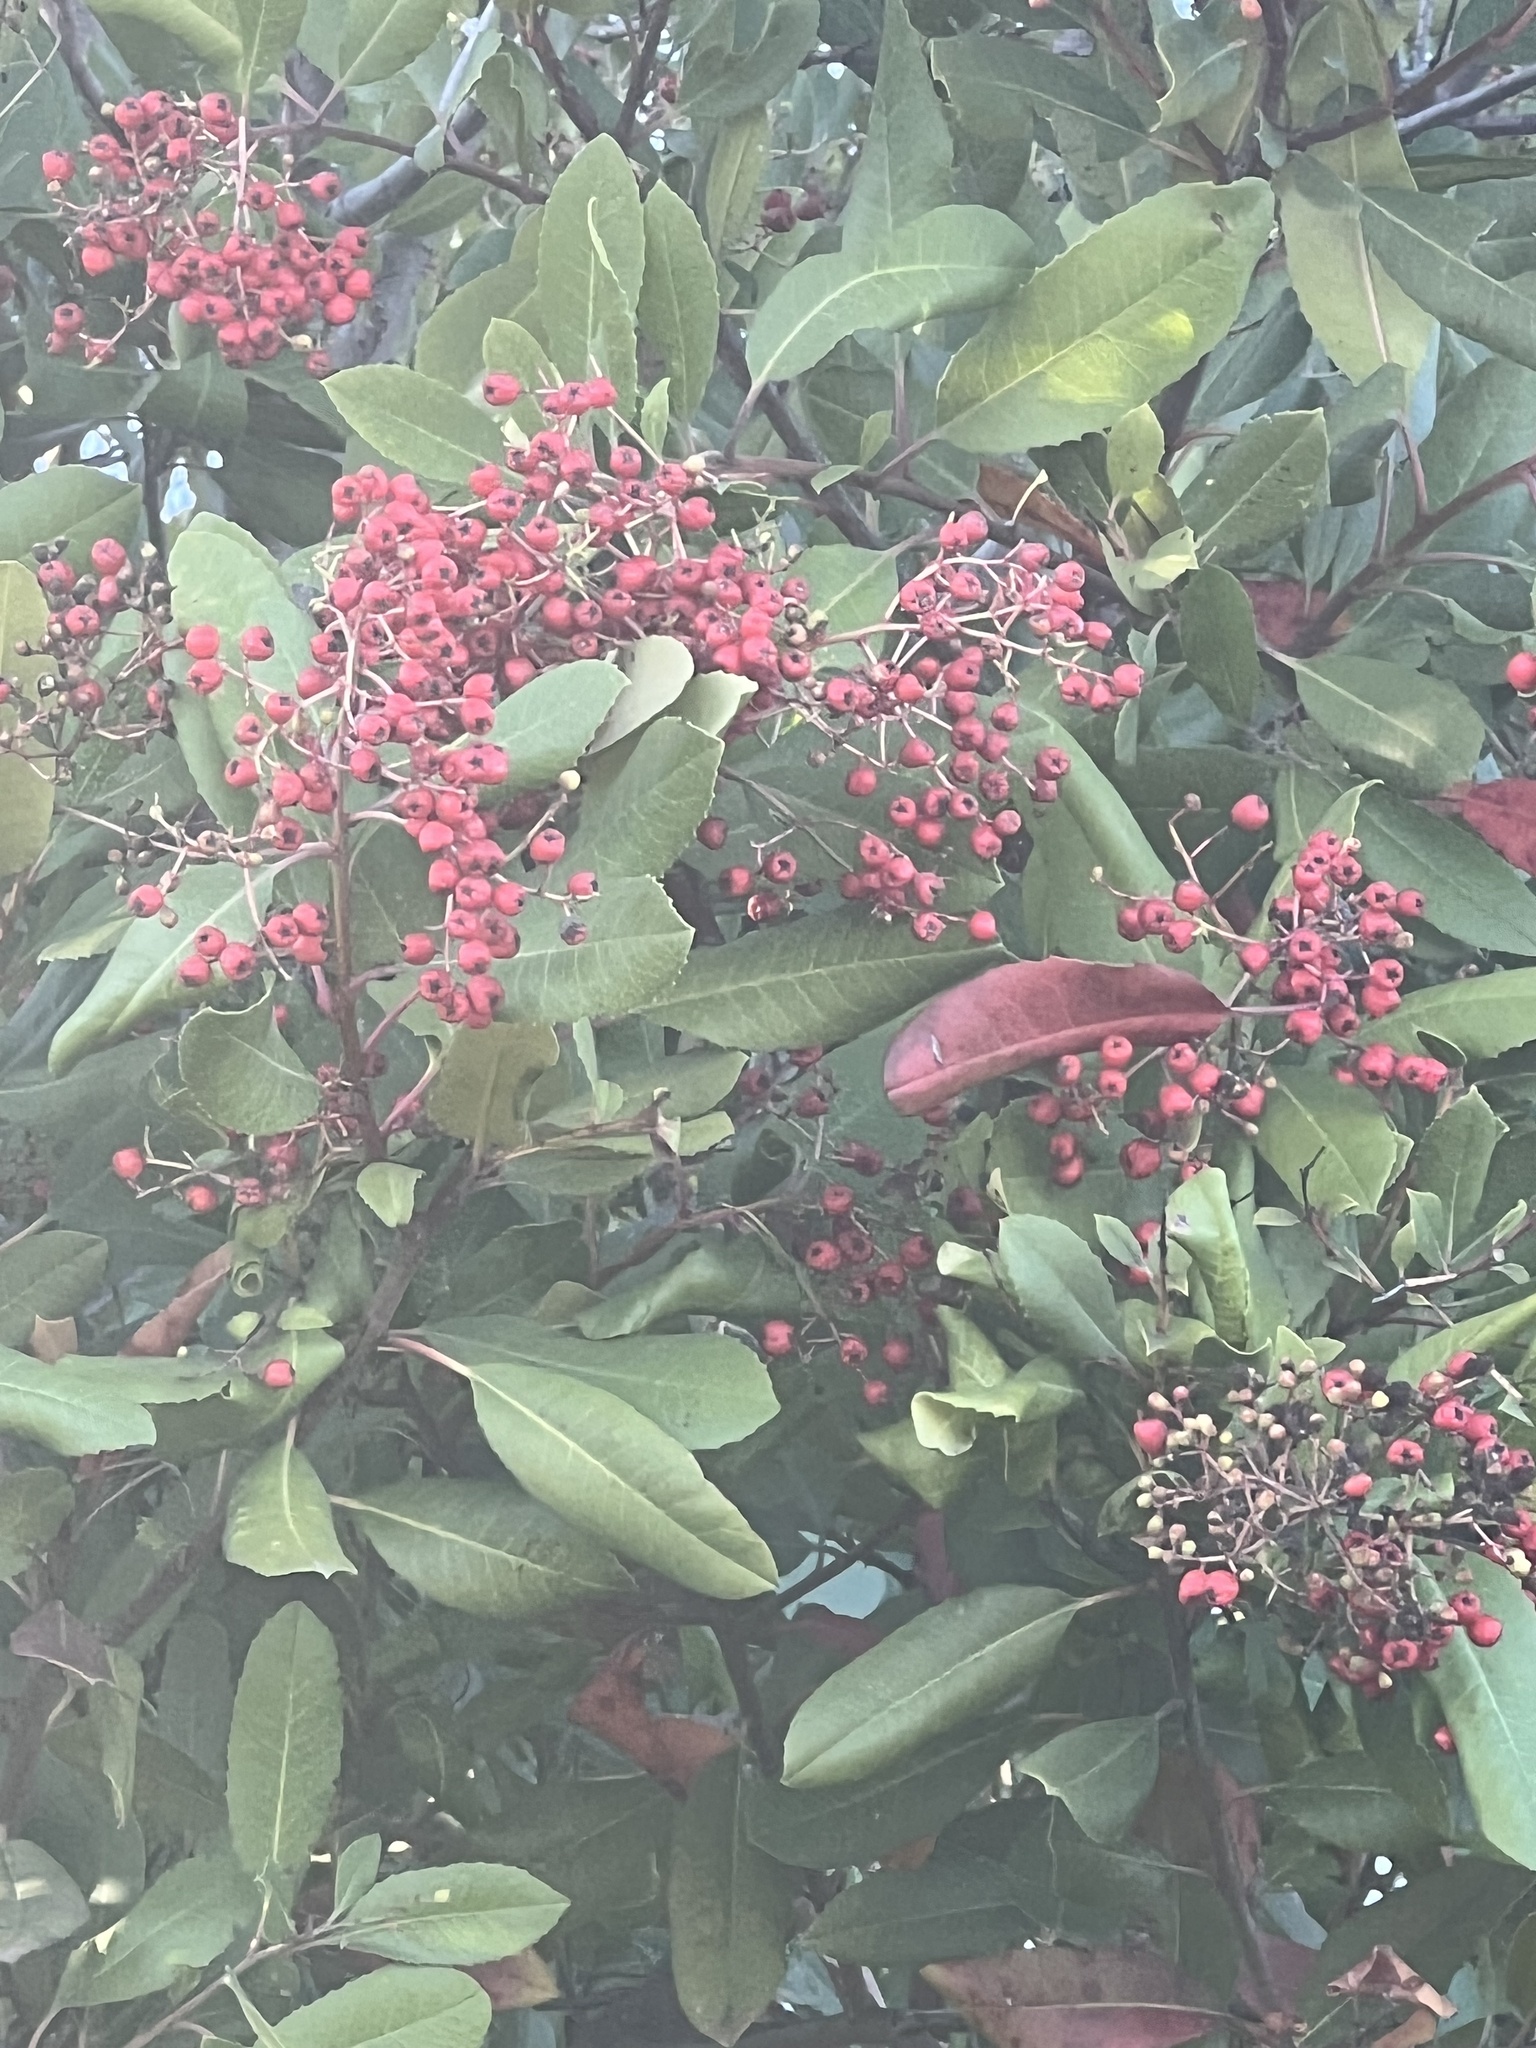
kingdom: Plantae
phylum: Tracheophyta
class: Magnoliopsida
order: Rosales
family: Rosaceae
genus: Heteromeles
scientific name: Heteromeles arbutifolia
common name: California-holly
